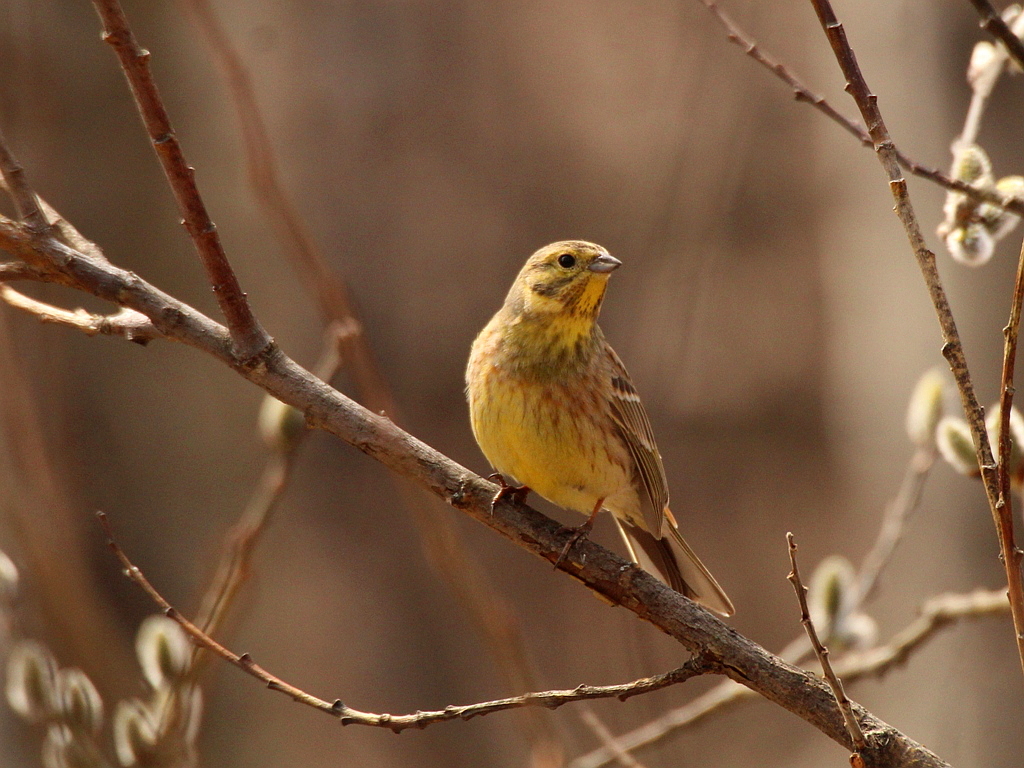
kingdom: Animalia
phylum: Chordata
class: Aves
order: Passeriformes
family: Emberizidae
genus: Emberiza
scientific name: Emberiza
